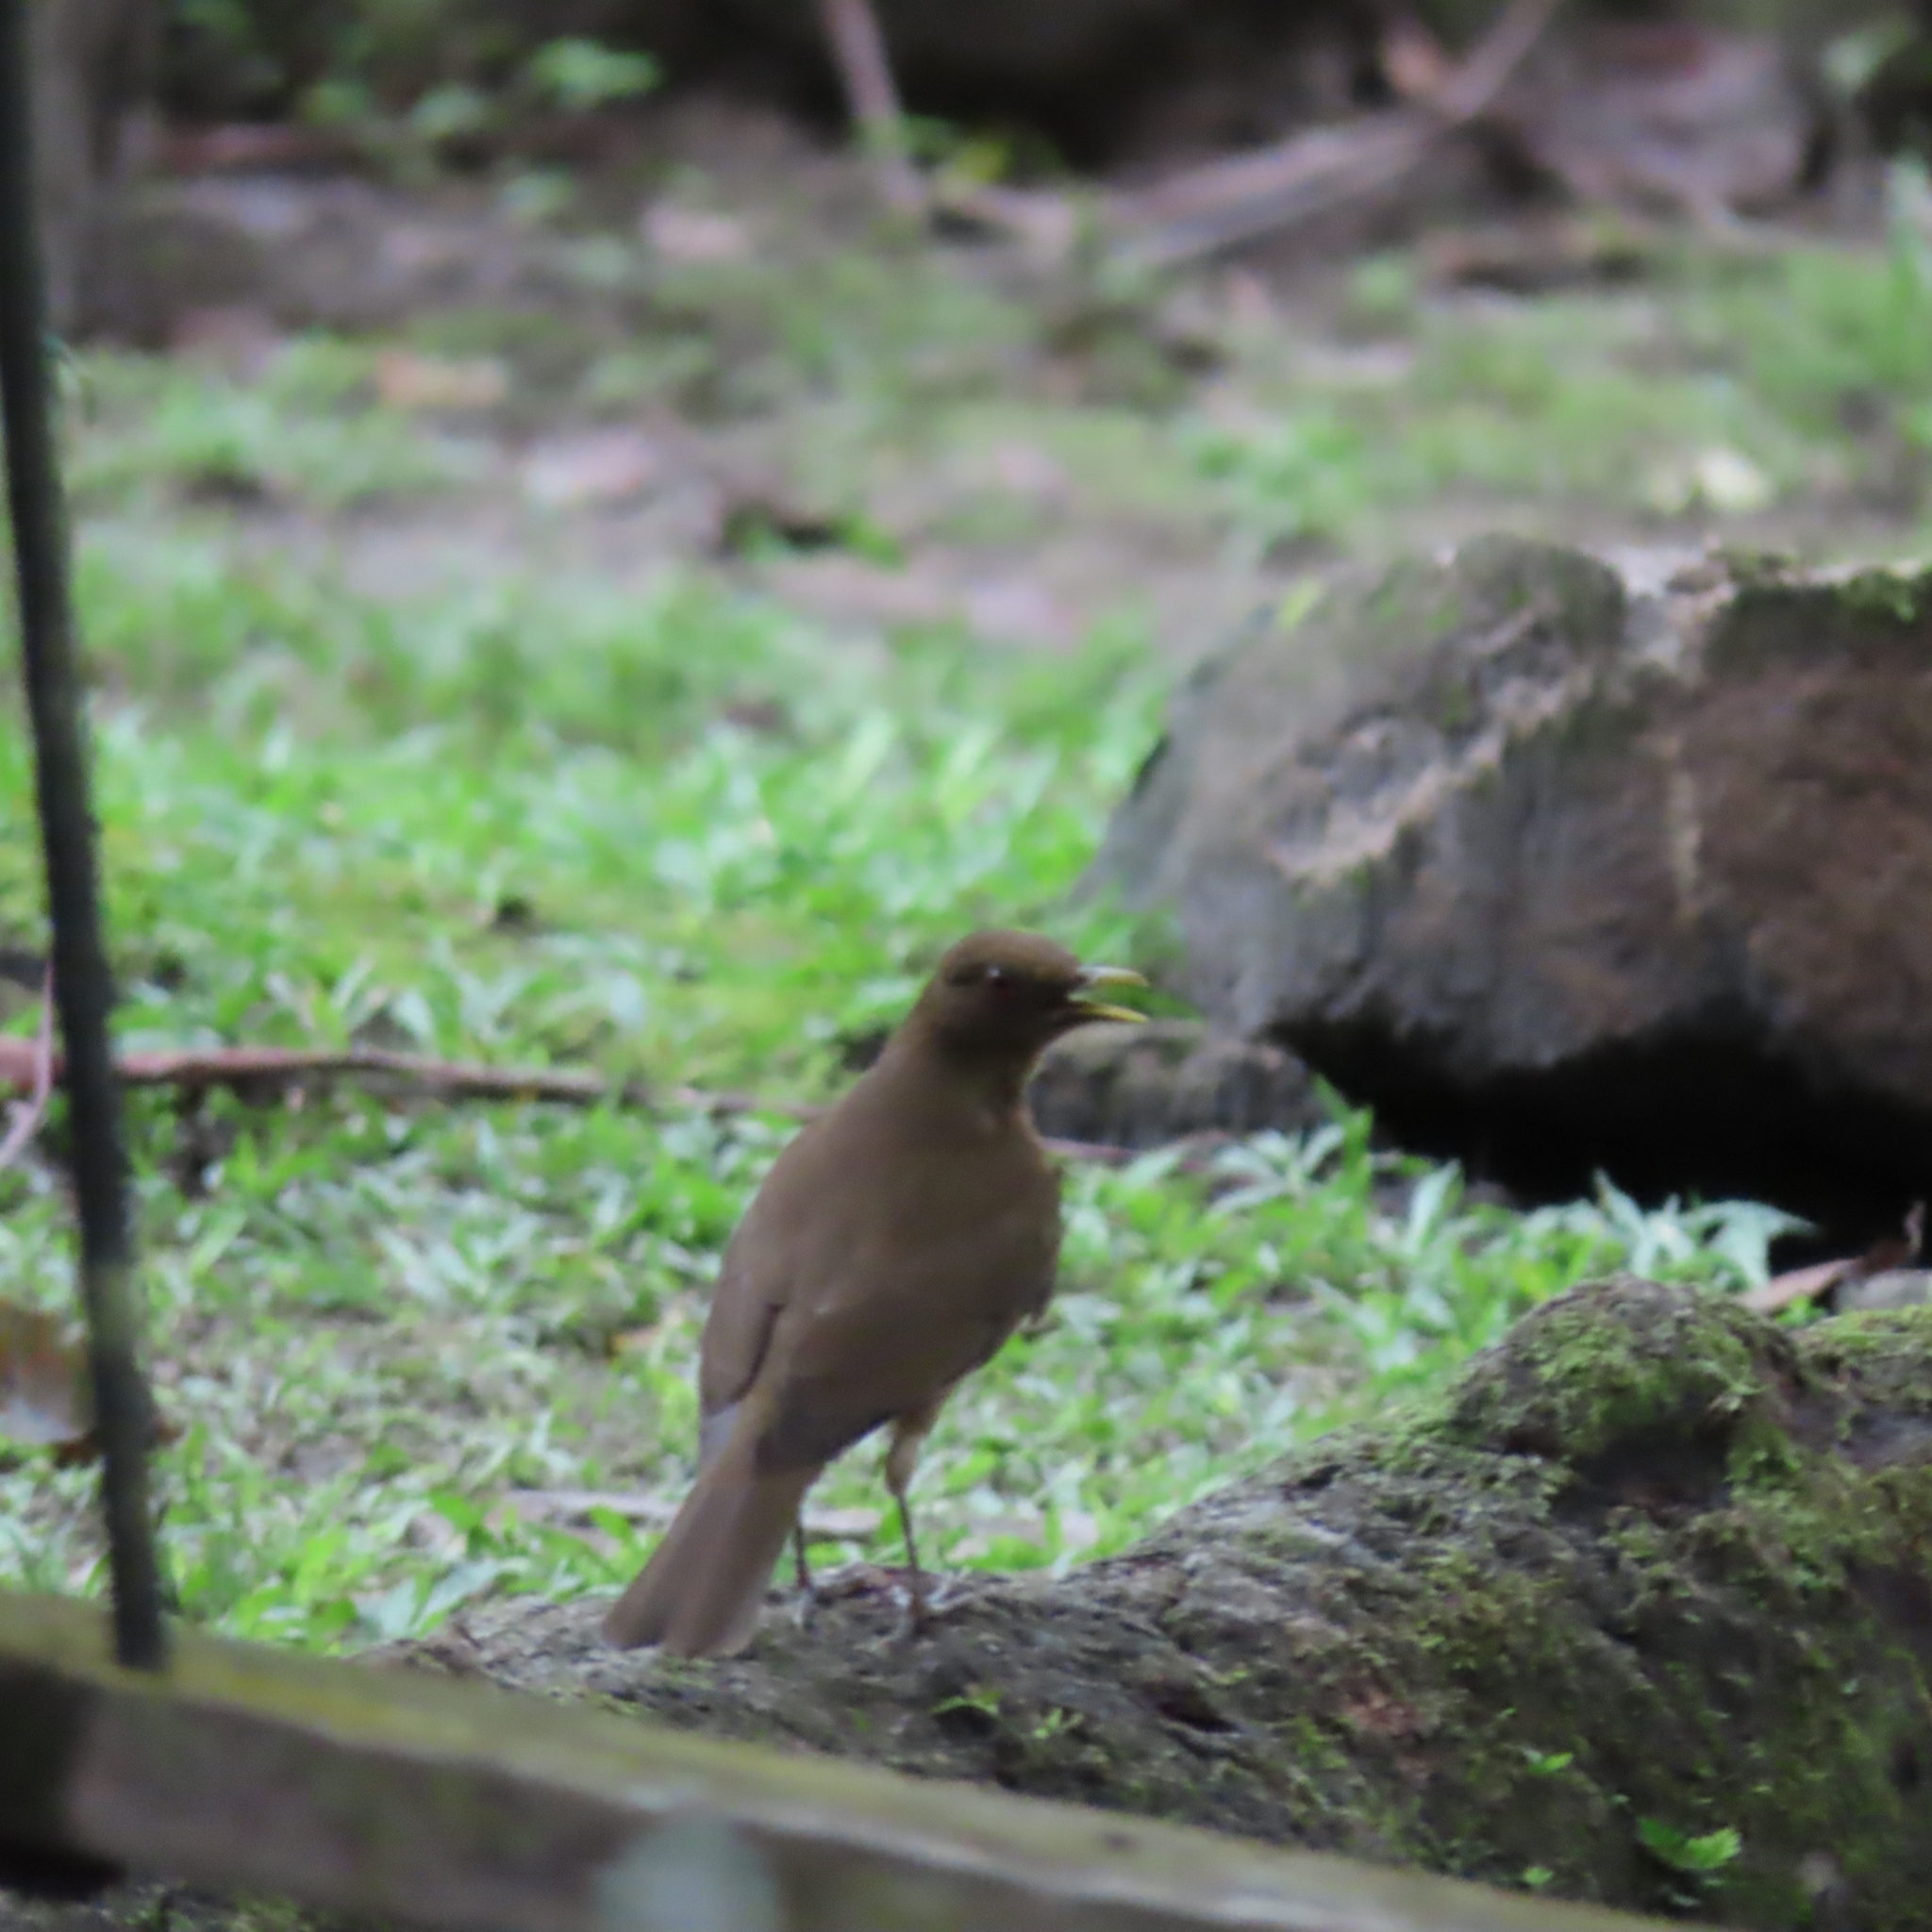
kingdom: Animalia
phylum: Chordata
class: Aves
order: Passeriformes
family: Turdidae
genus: Turdus
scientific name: Turdus grayi
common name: Clay-colored thrush
